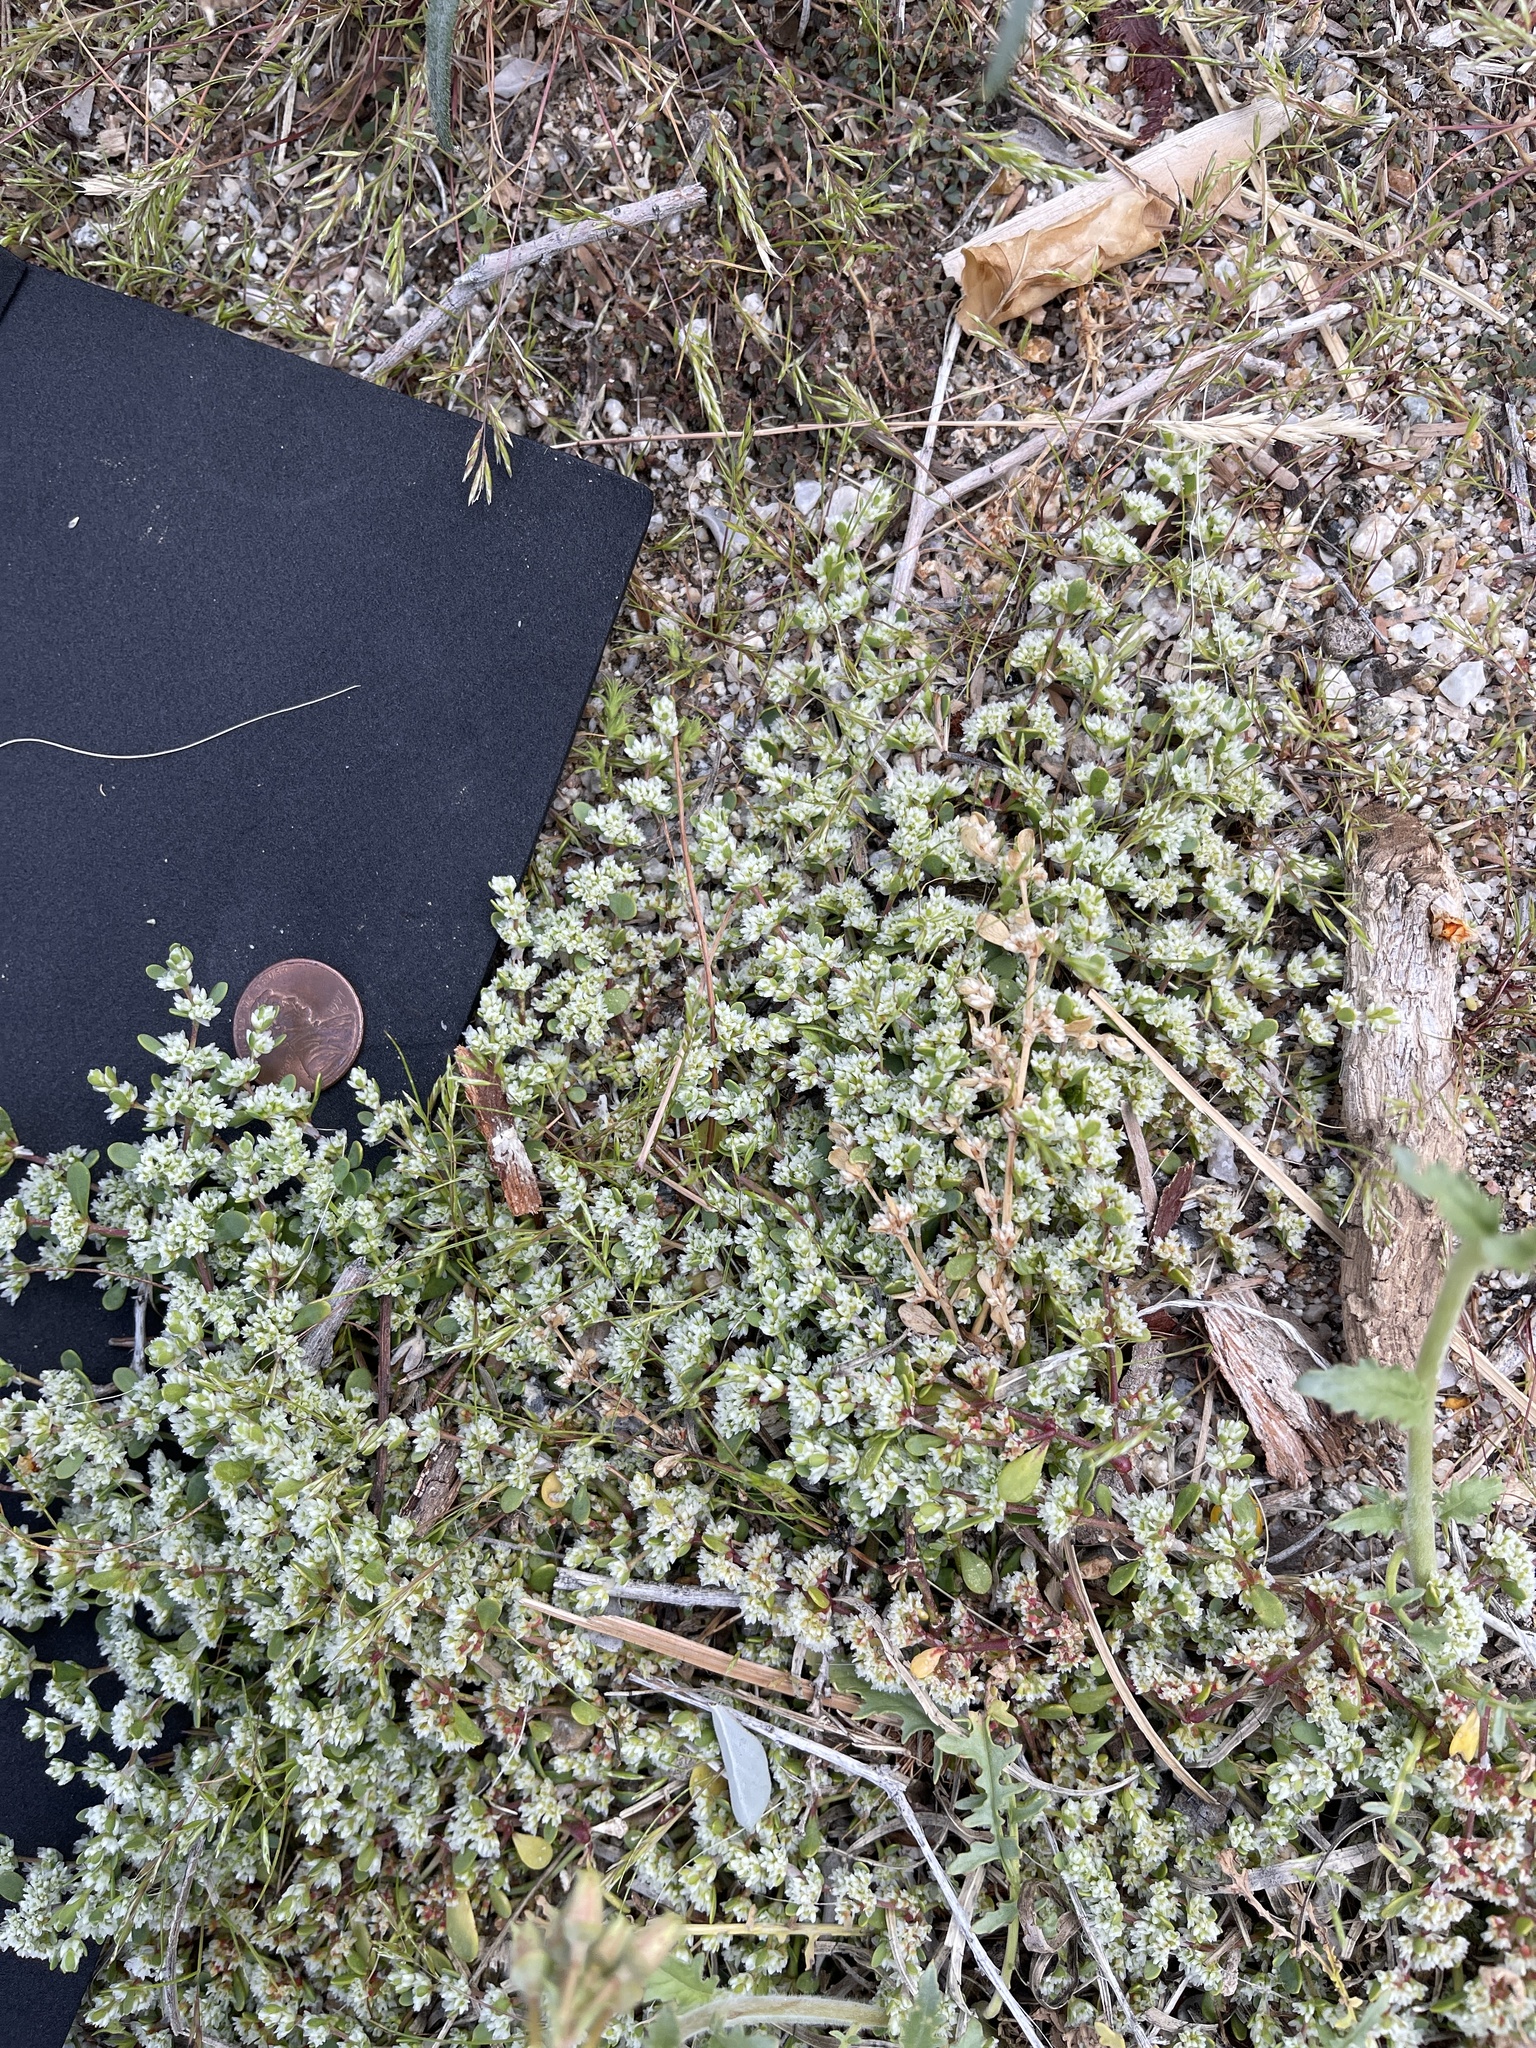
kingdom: Plantae
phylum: Tracheophyta
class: Magnoliopsida
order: Caryophyllales
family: Caryophyllaceae
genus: Achyronychia
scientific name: Achyronychia cooperi
